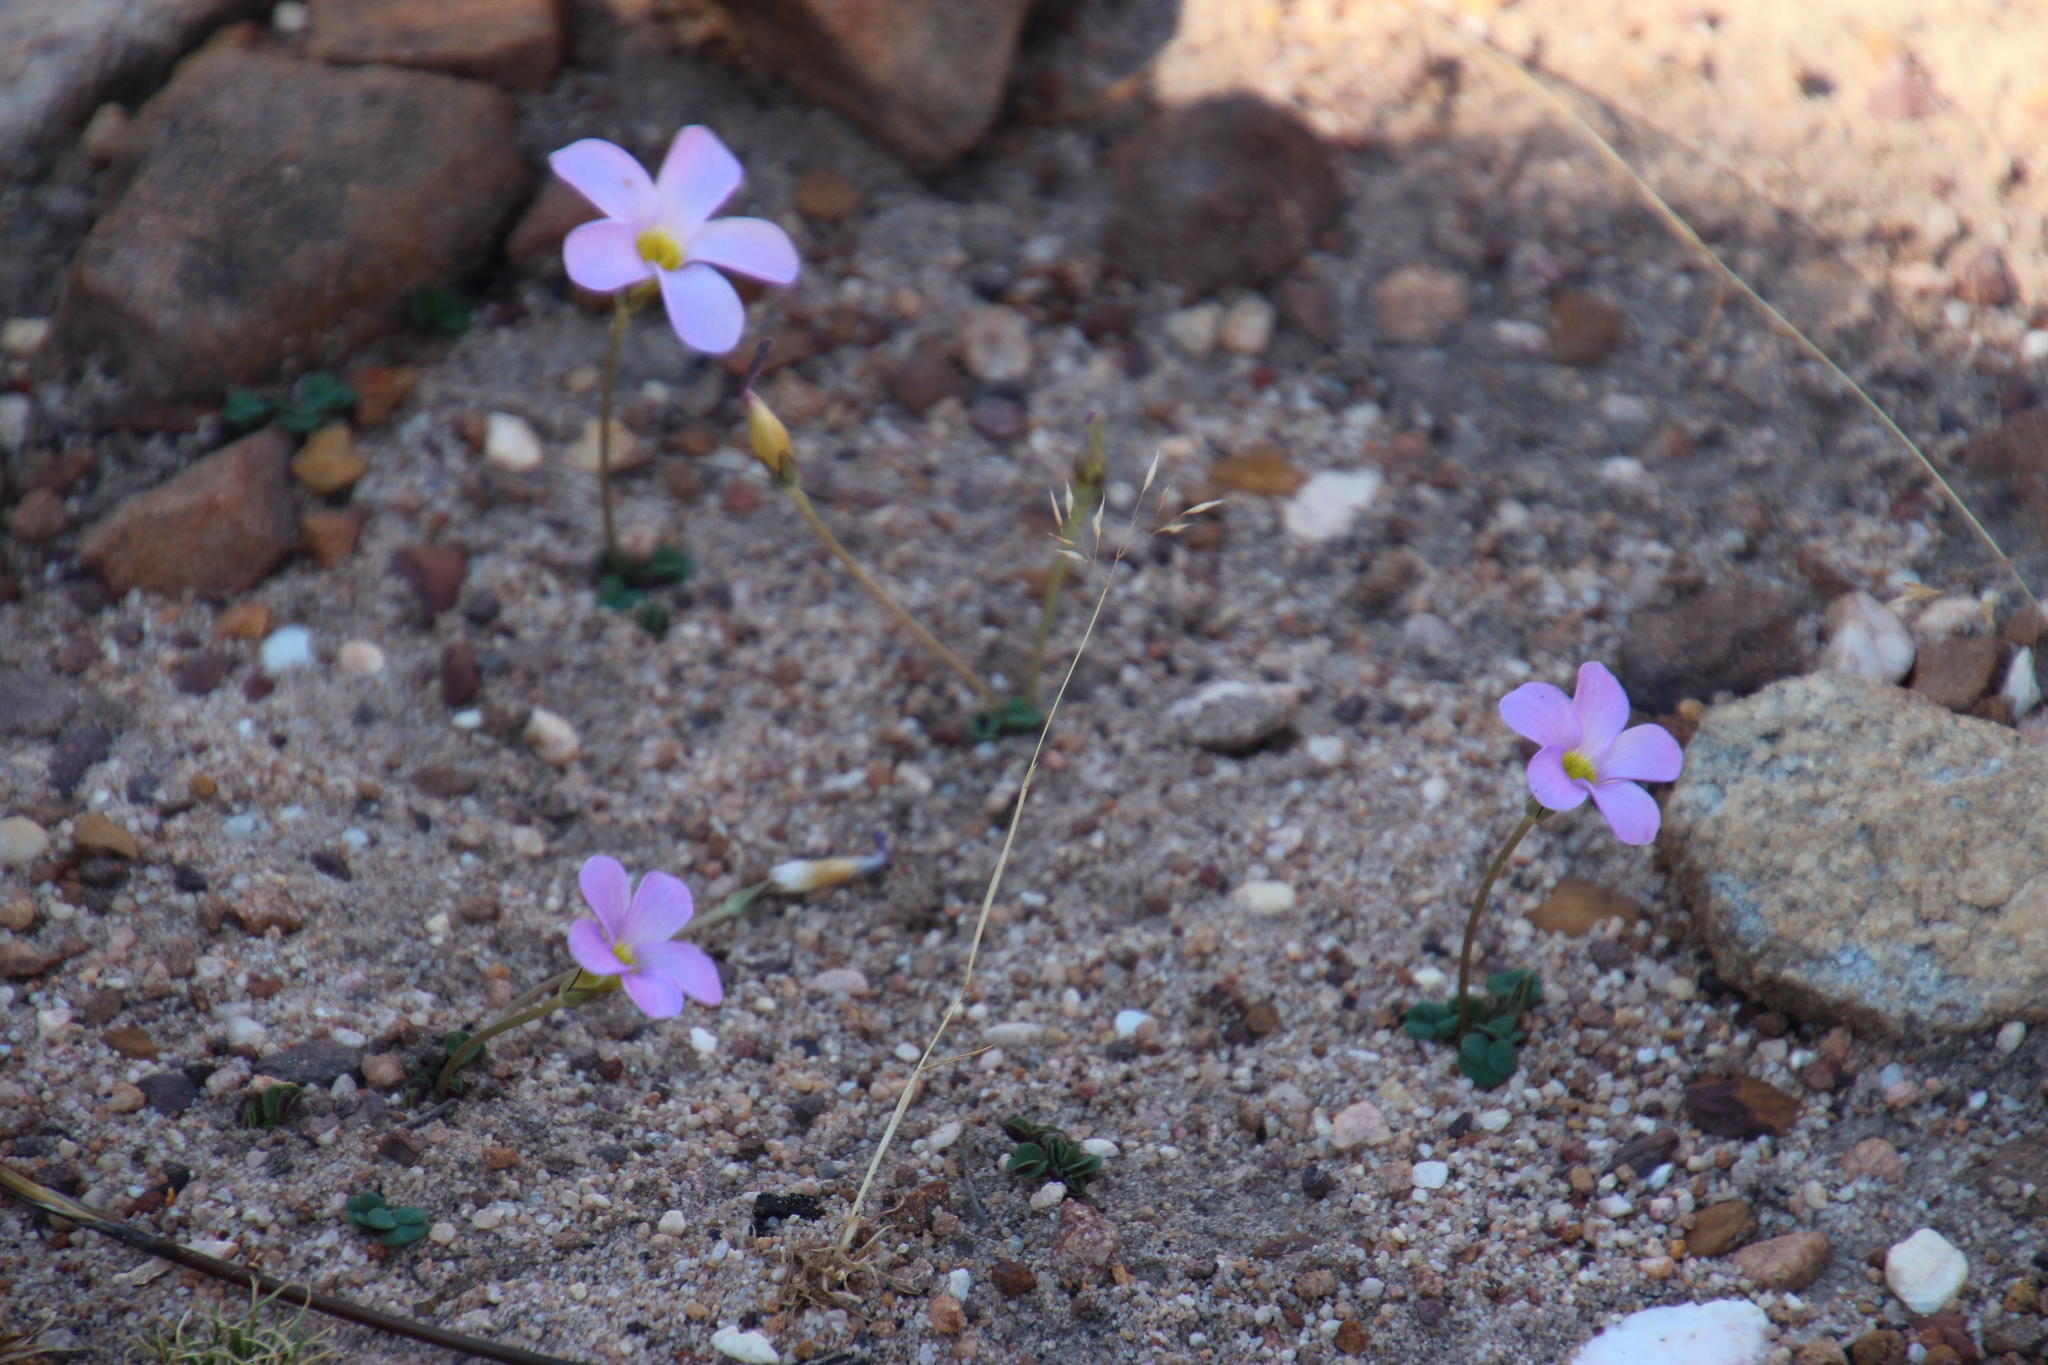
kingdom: Plantae
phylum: Tracheophyta
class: Magnoliopsida
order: Oxalidales
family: Oxalidaceae
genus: Oxalis
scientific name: Oxalis pocockiae
